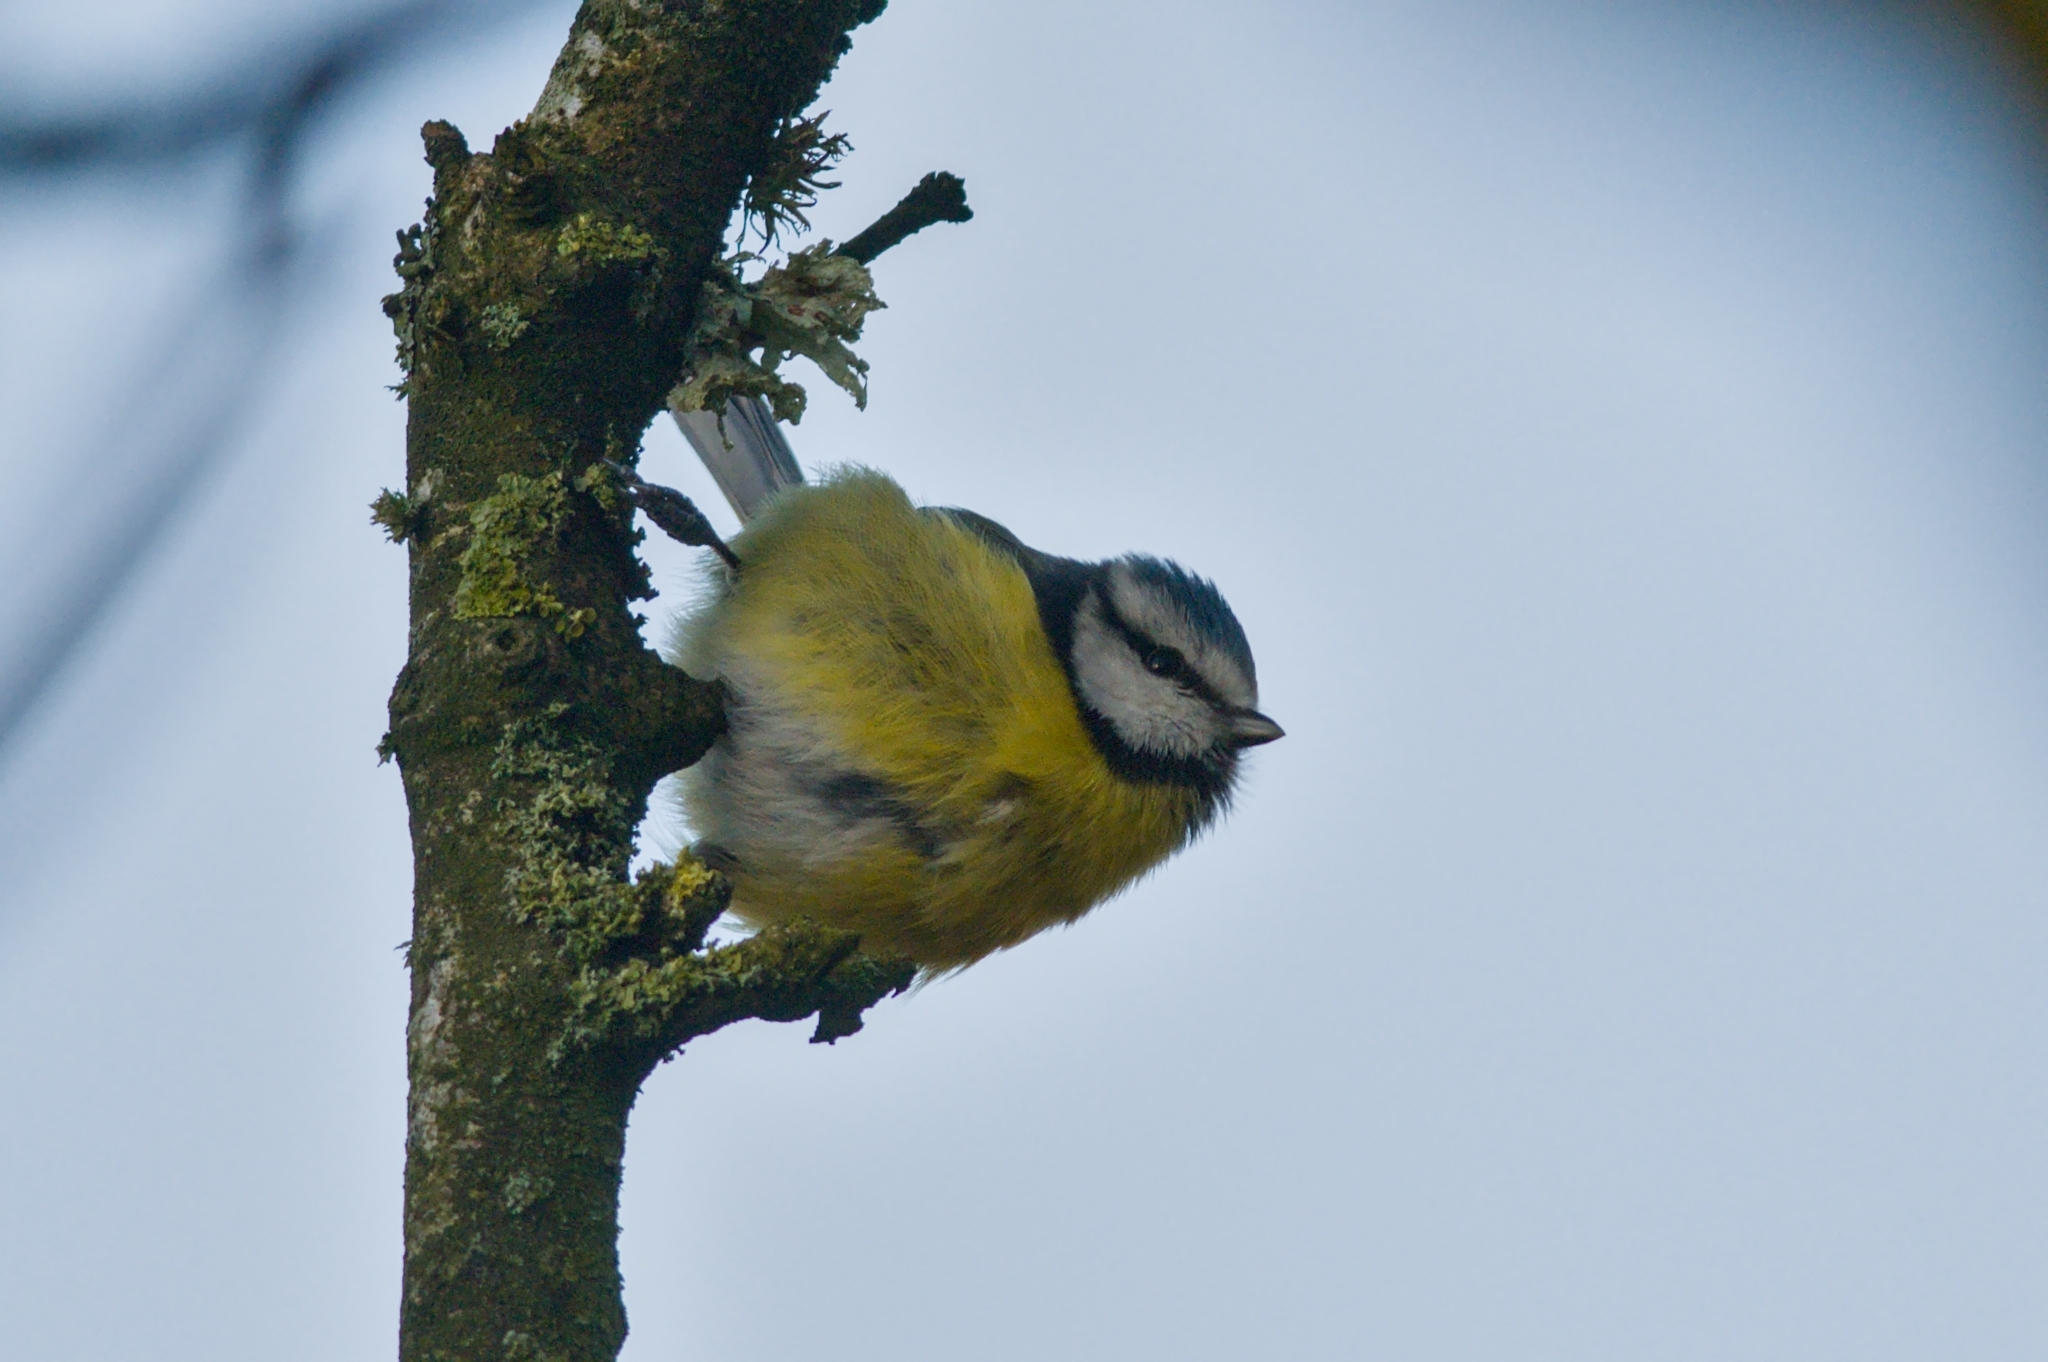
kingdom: Animalia
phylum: Chordata
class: Aves
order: Passeriformes
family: Paridae
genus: Cyanistes
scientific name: Cyanistes caeruleus
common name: Eurasian blue tit
